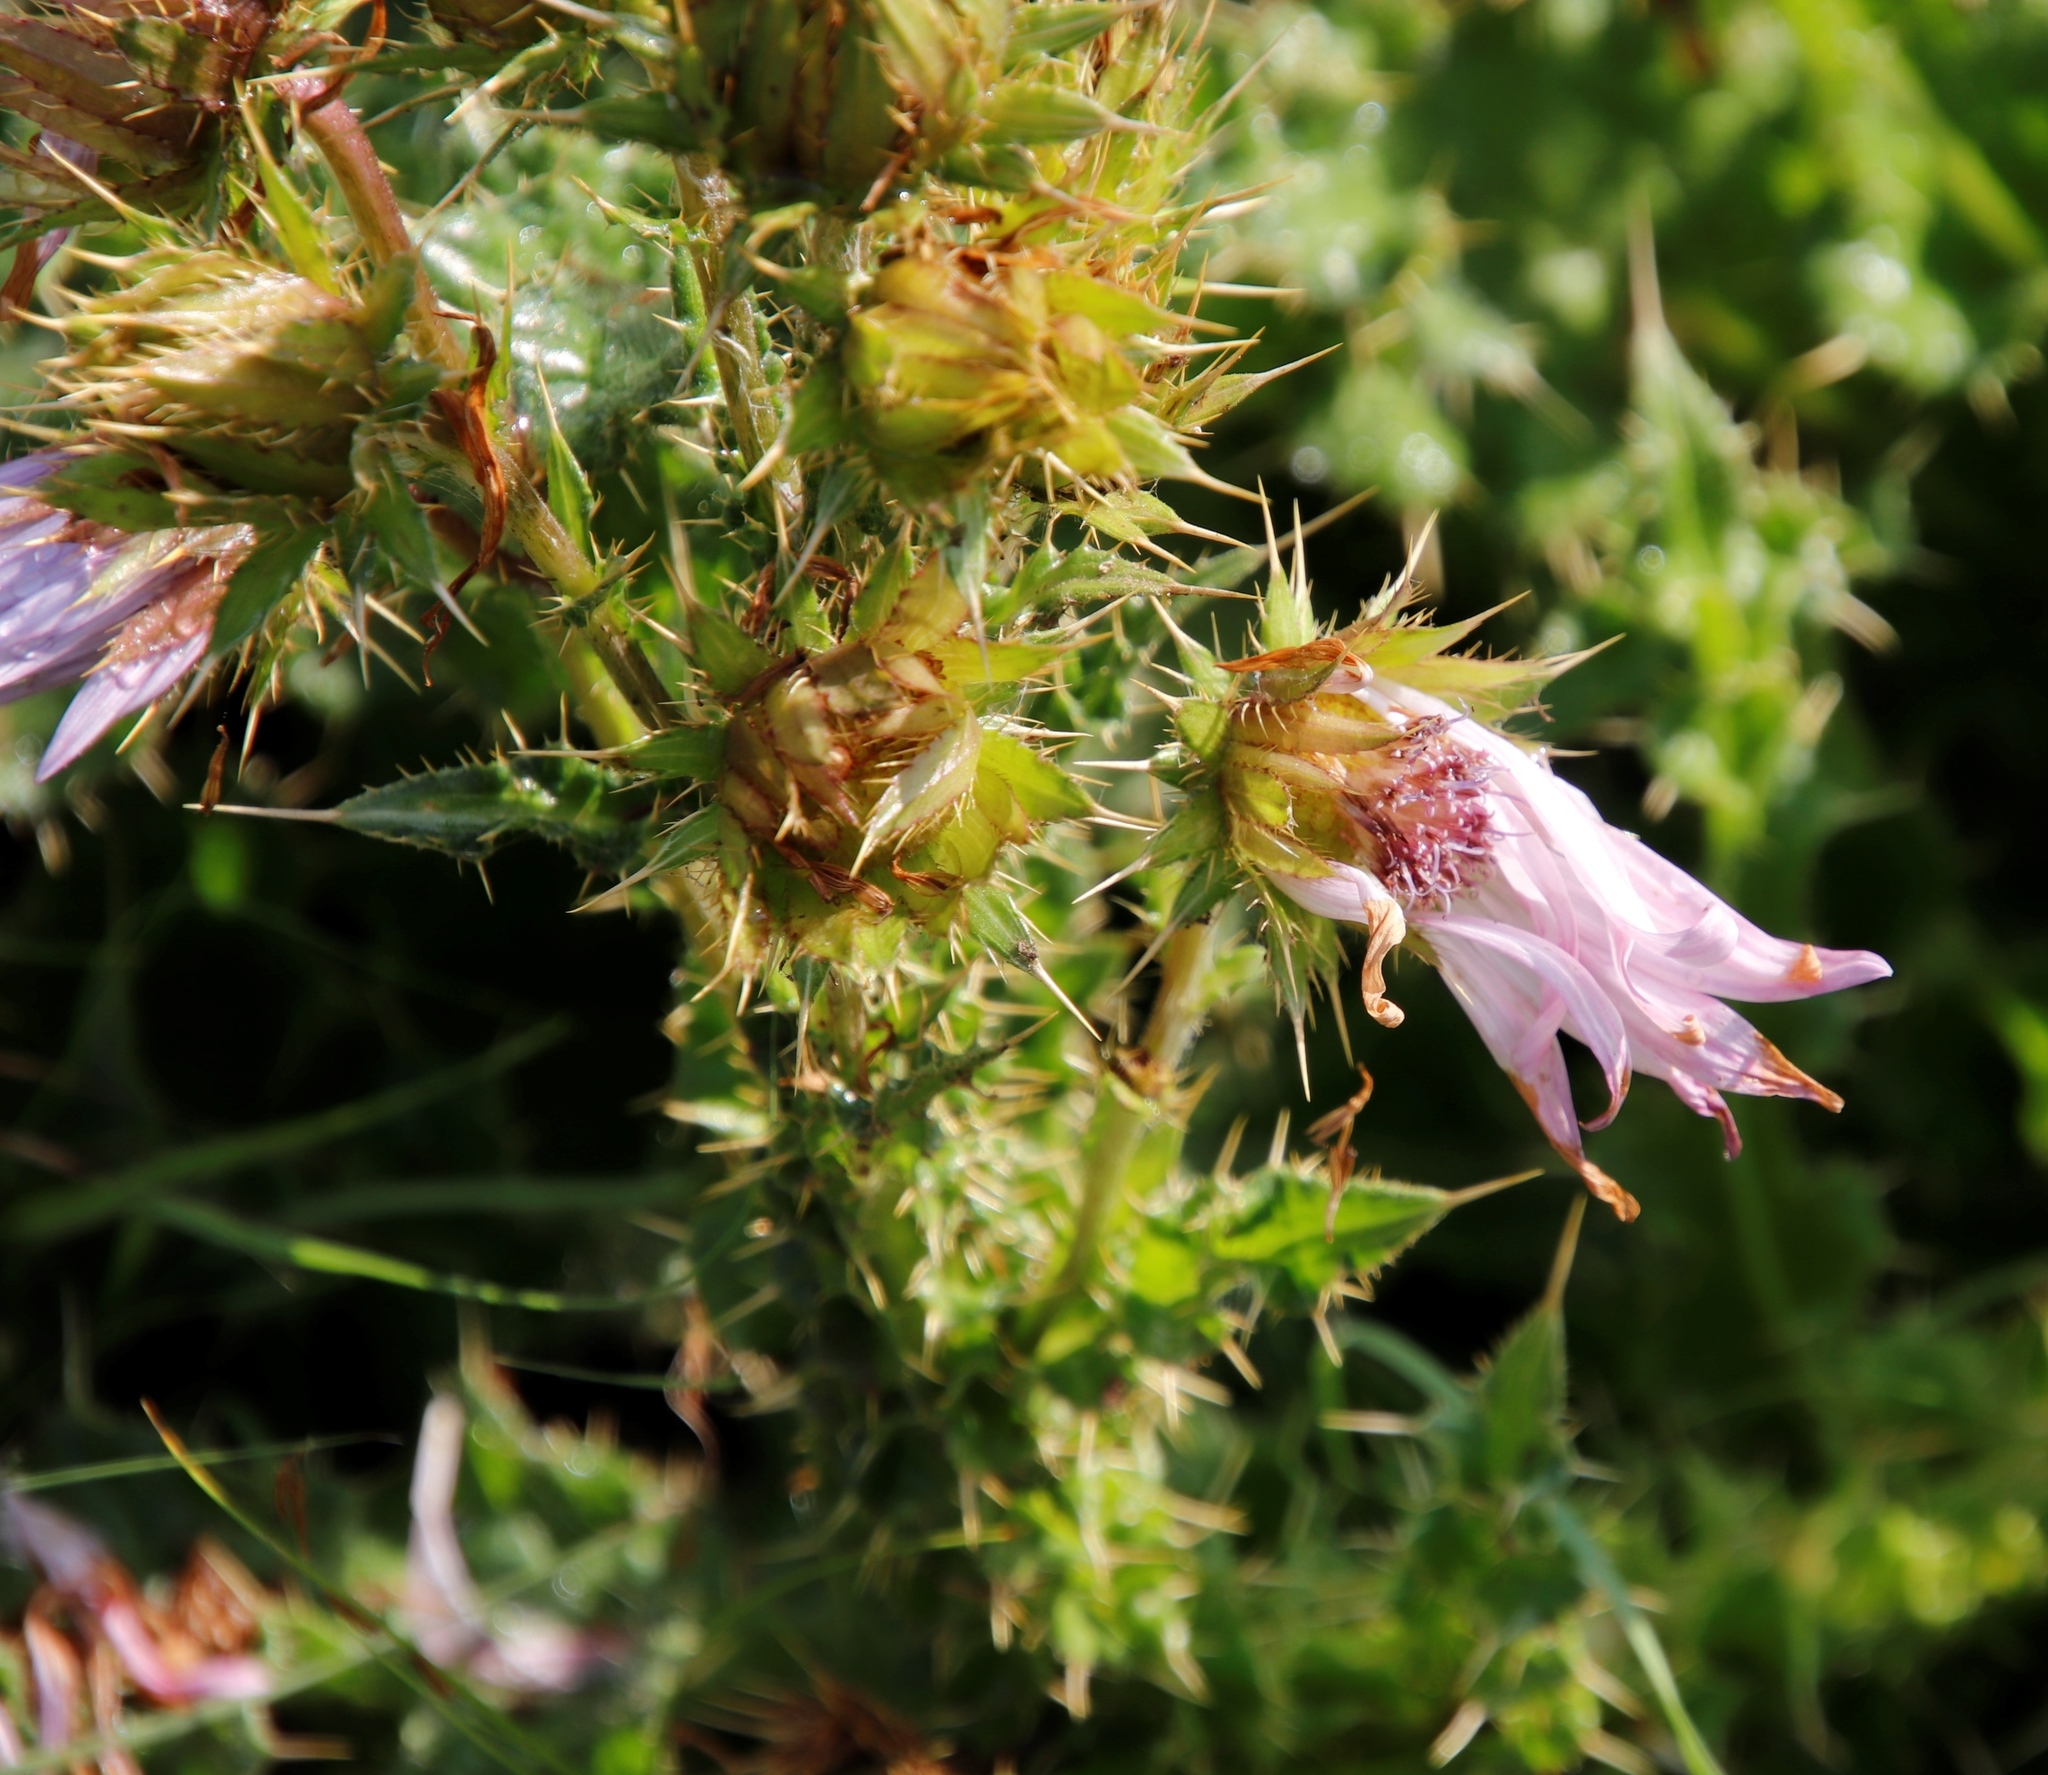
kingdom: Plantae
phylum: Tracheophyta
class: Magnoliopsida
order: Asterales
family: Asteraceae
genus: Berkheya
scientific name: Berkheya purpurea
